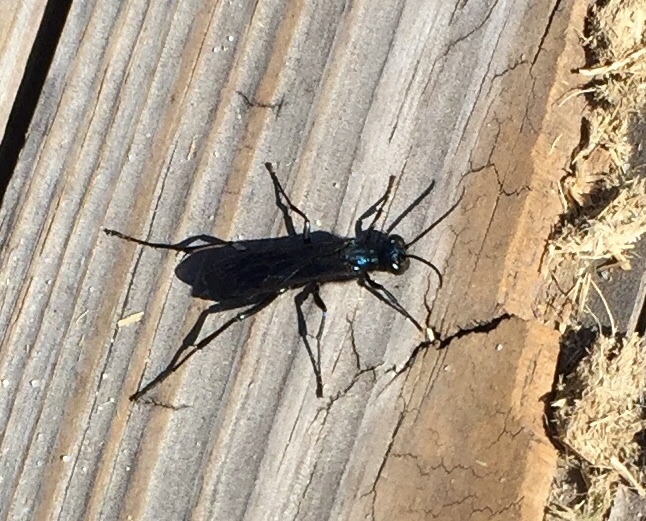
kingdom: Animalia
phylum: Arthropoda
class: Insecta
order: Hymenoptera
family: Sphecidae
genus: Chalybion
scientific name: Chalybion californicum
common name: Mud dauber
